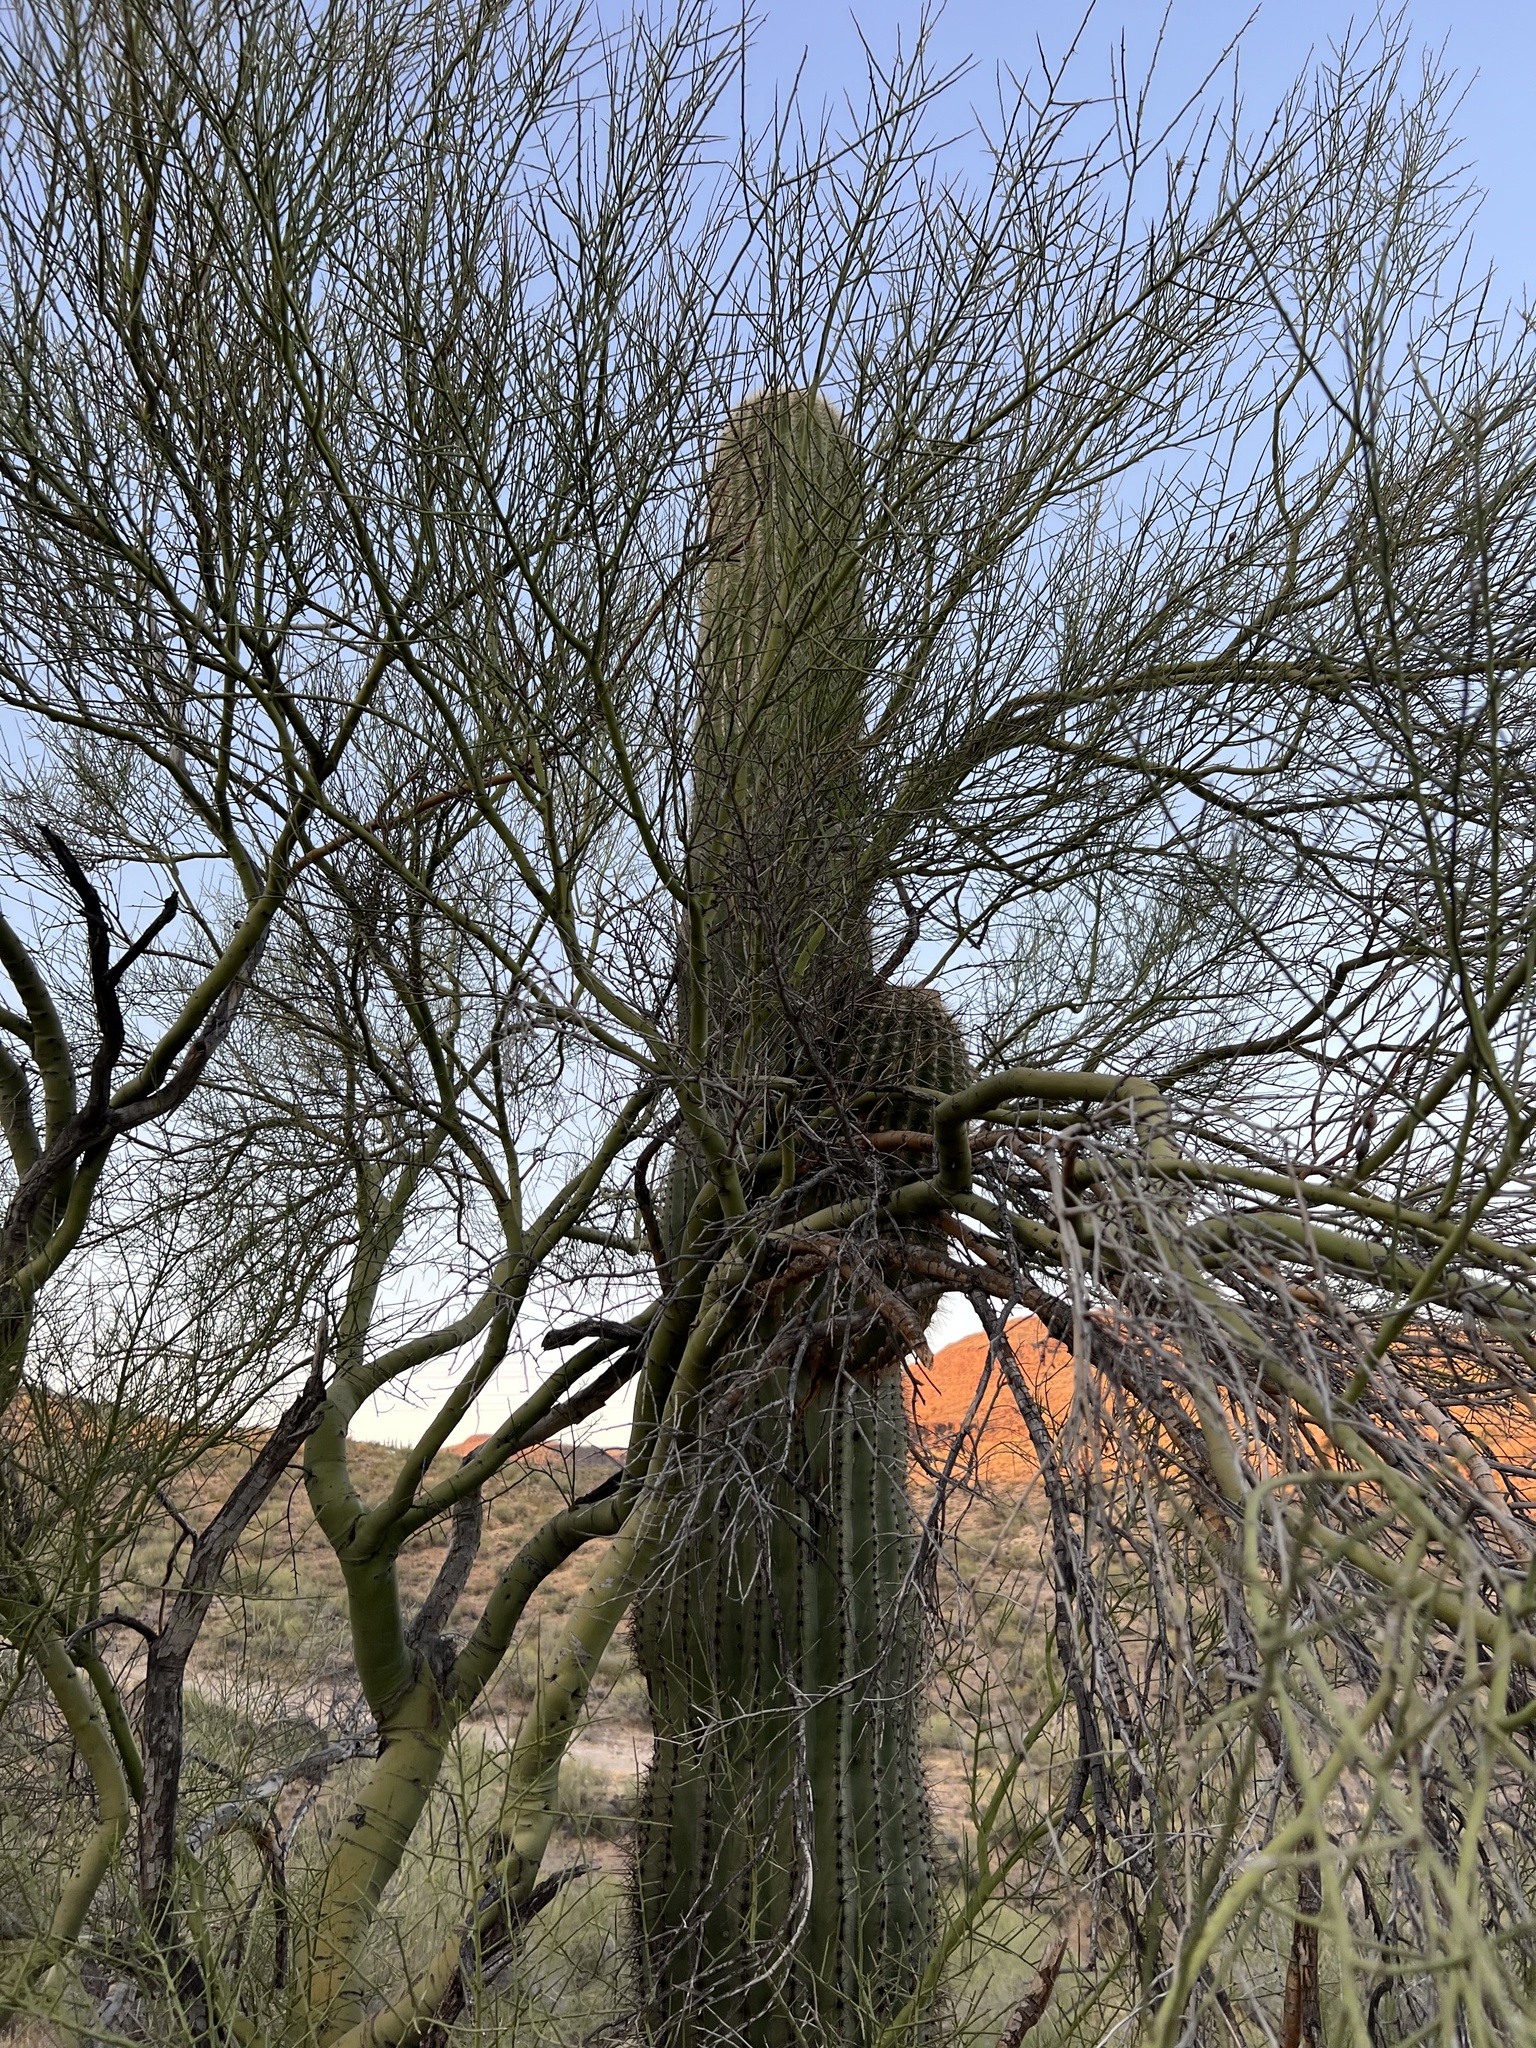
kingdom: Plantae
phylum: Tracheophyta
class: Magnoliopsida
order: Caryophyllales
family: Cactaceae
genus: Carnegiea
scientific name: Carnegiea gigantea
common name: Saguaro
